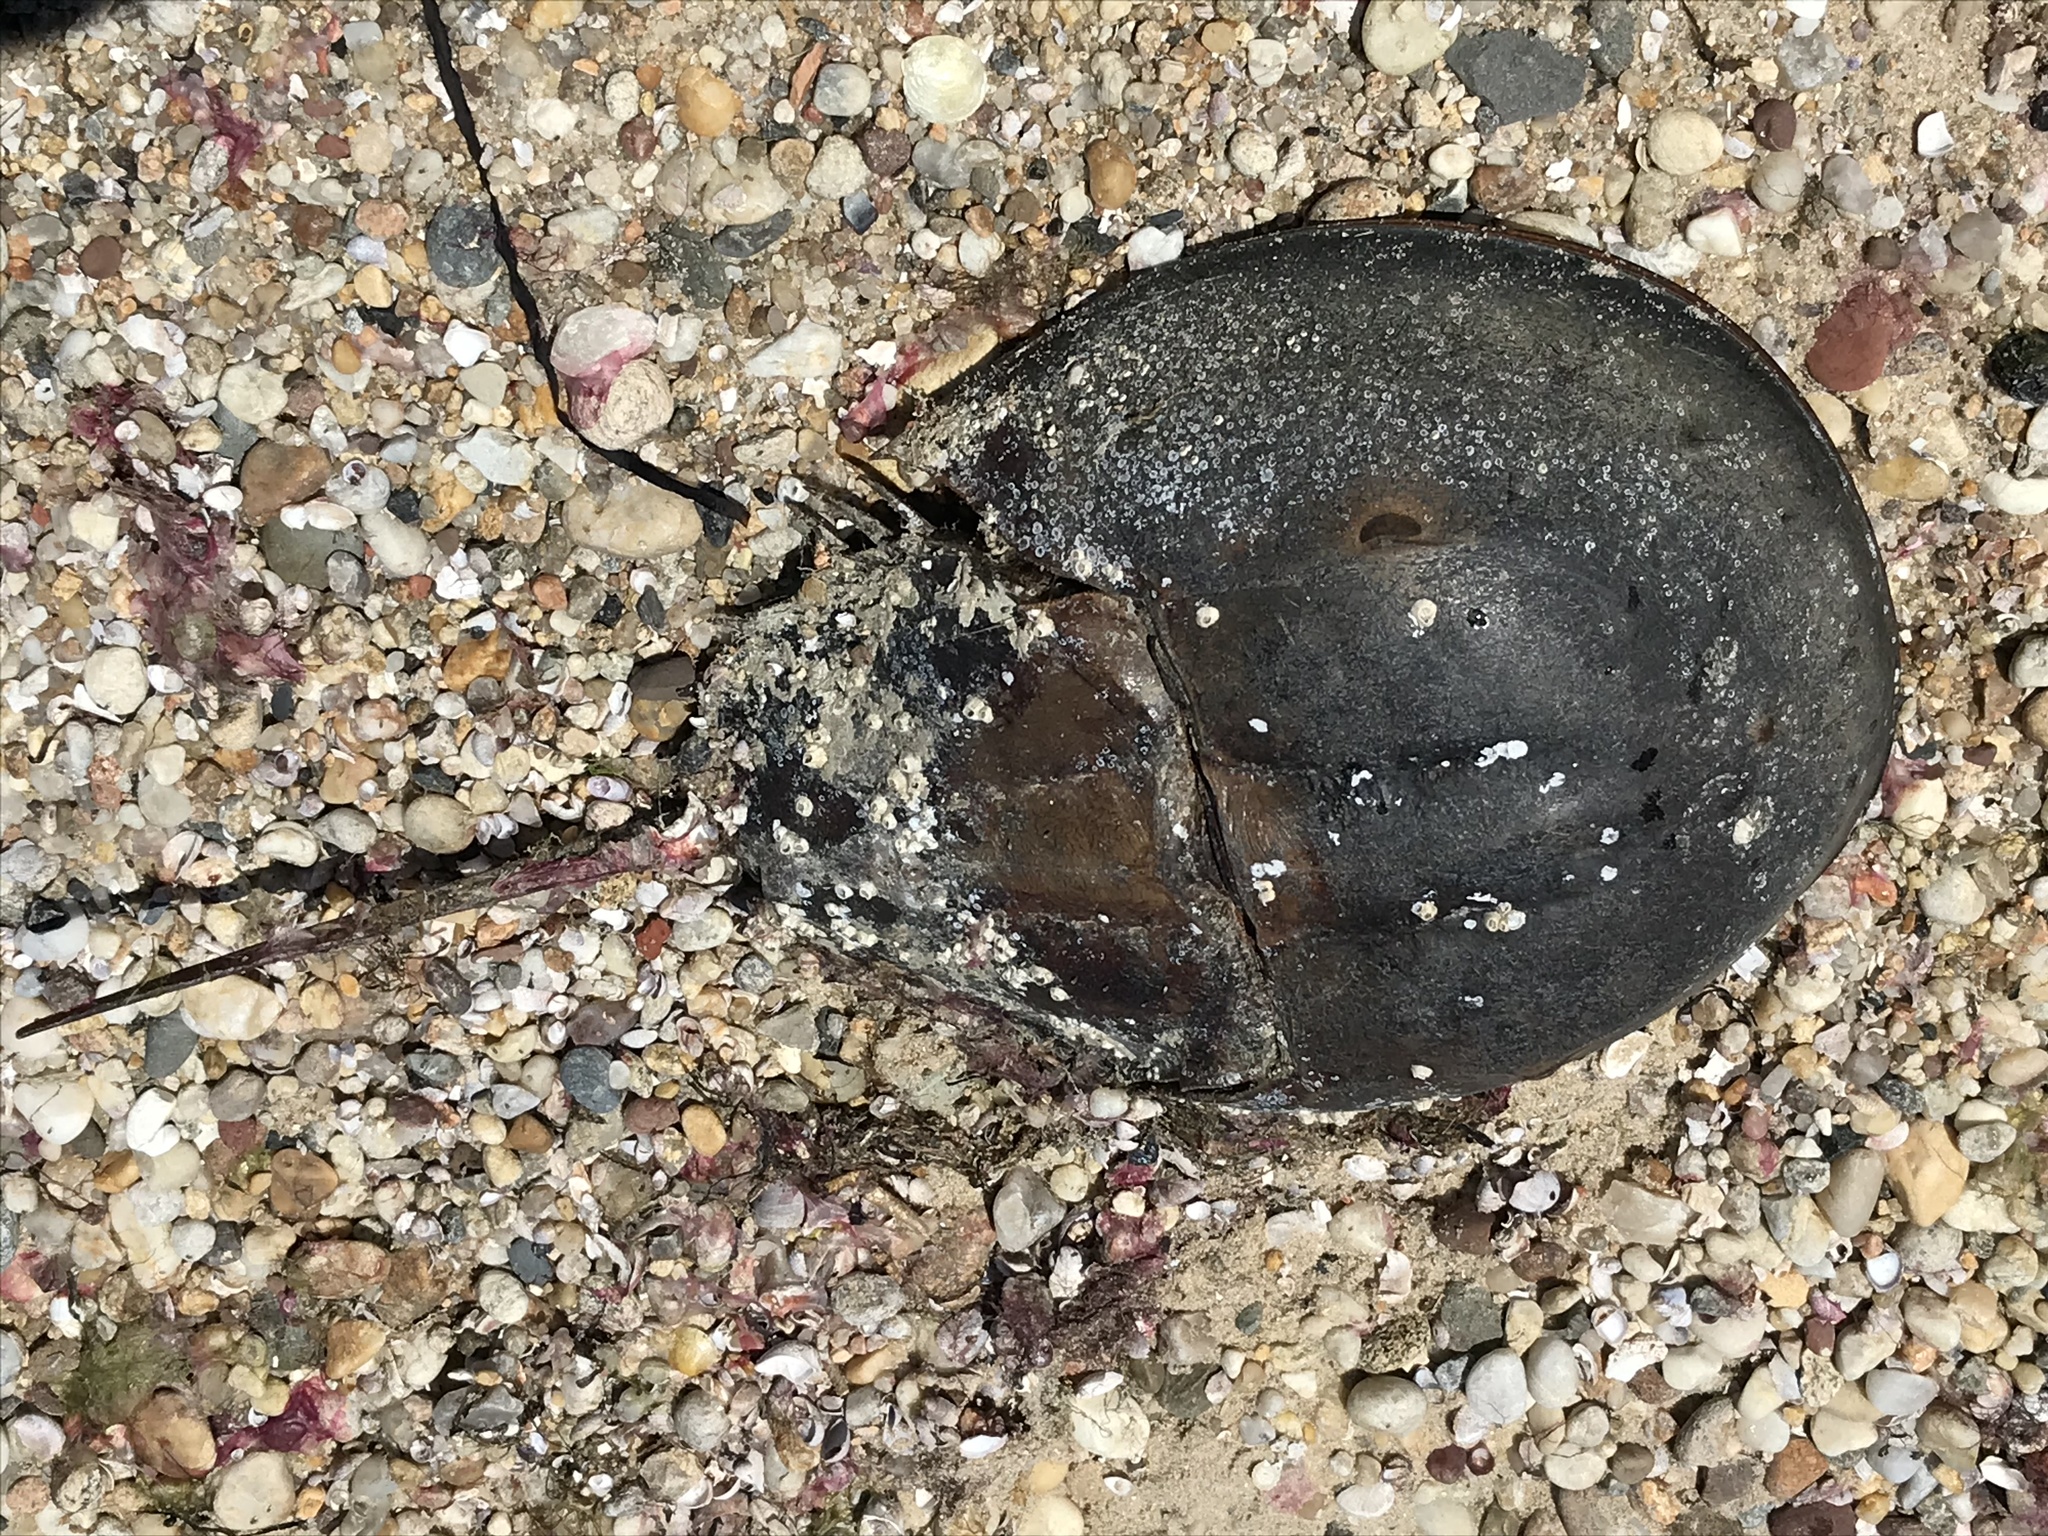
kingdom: Animalia
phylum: Arthropoda
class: Merostomata
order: Xiphosurida
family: Limulidae
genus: Limulus
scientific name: Limulus polyphemus
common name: Horseshoe crab
